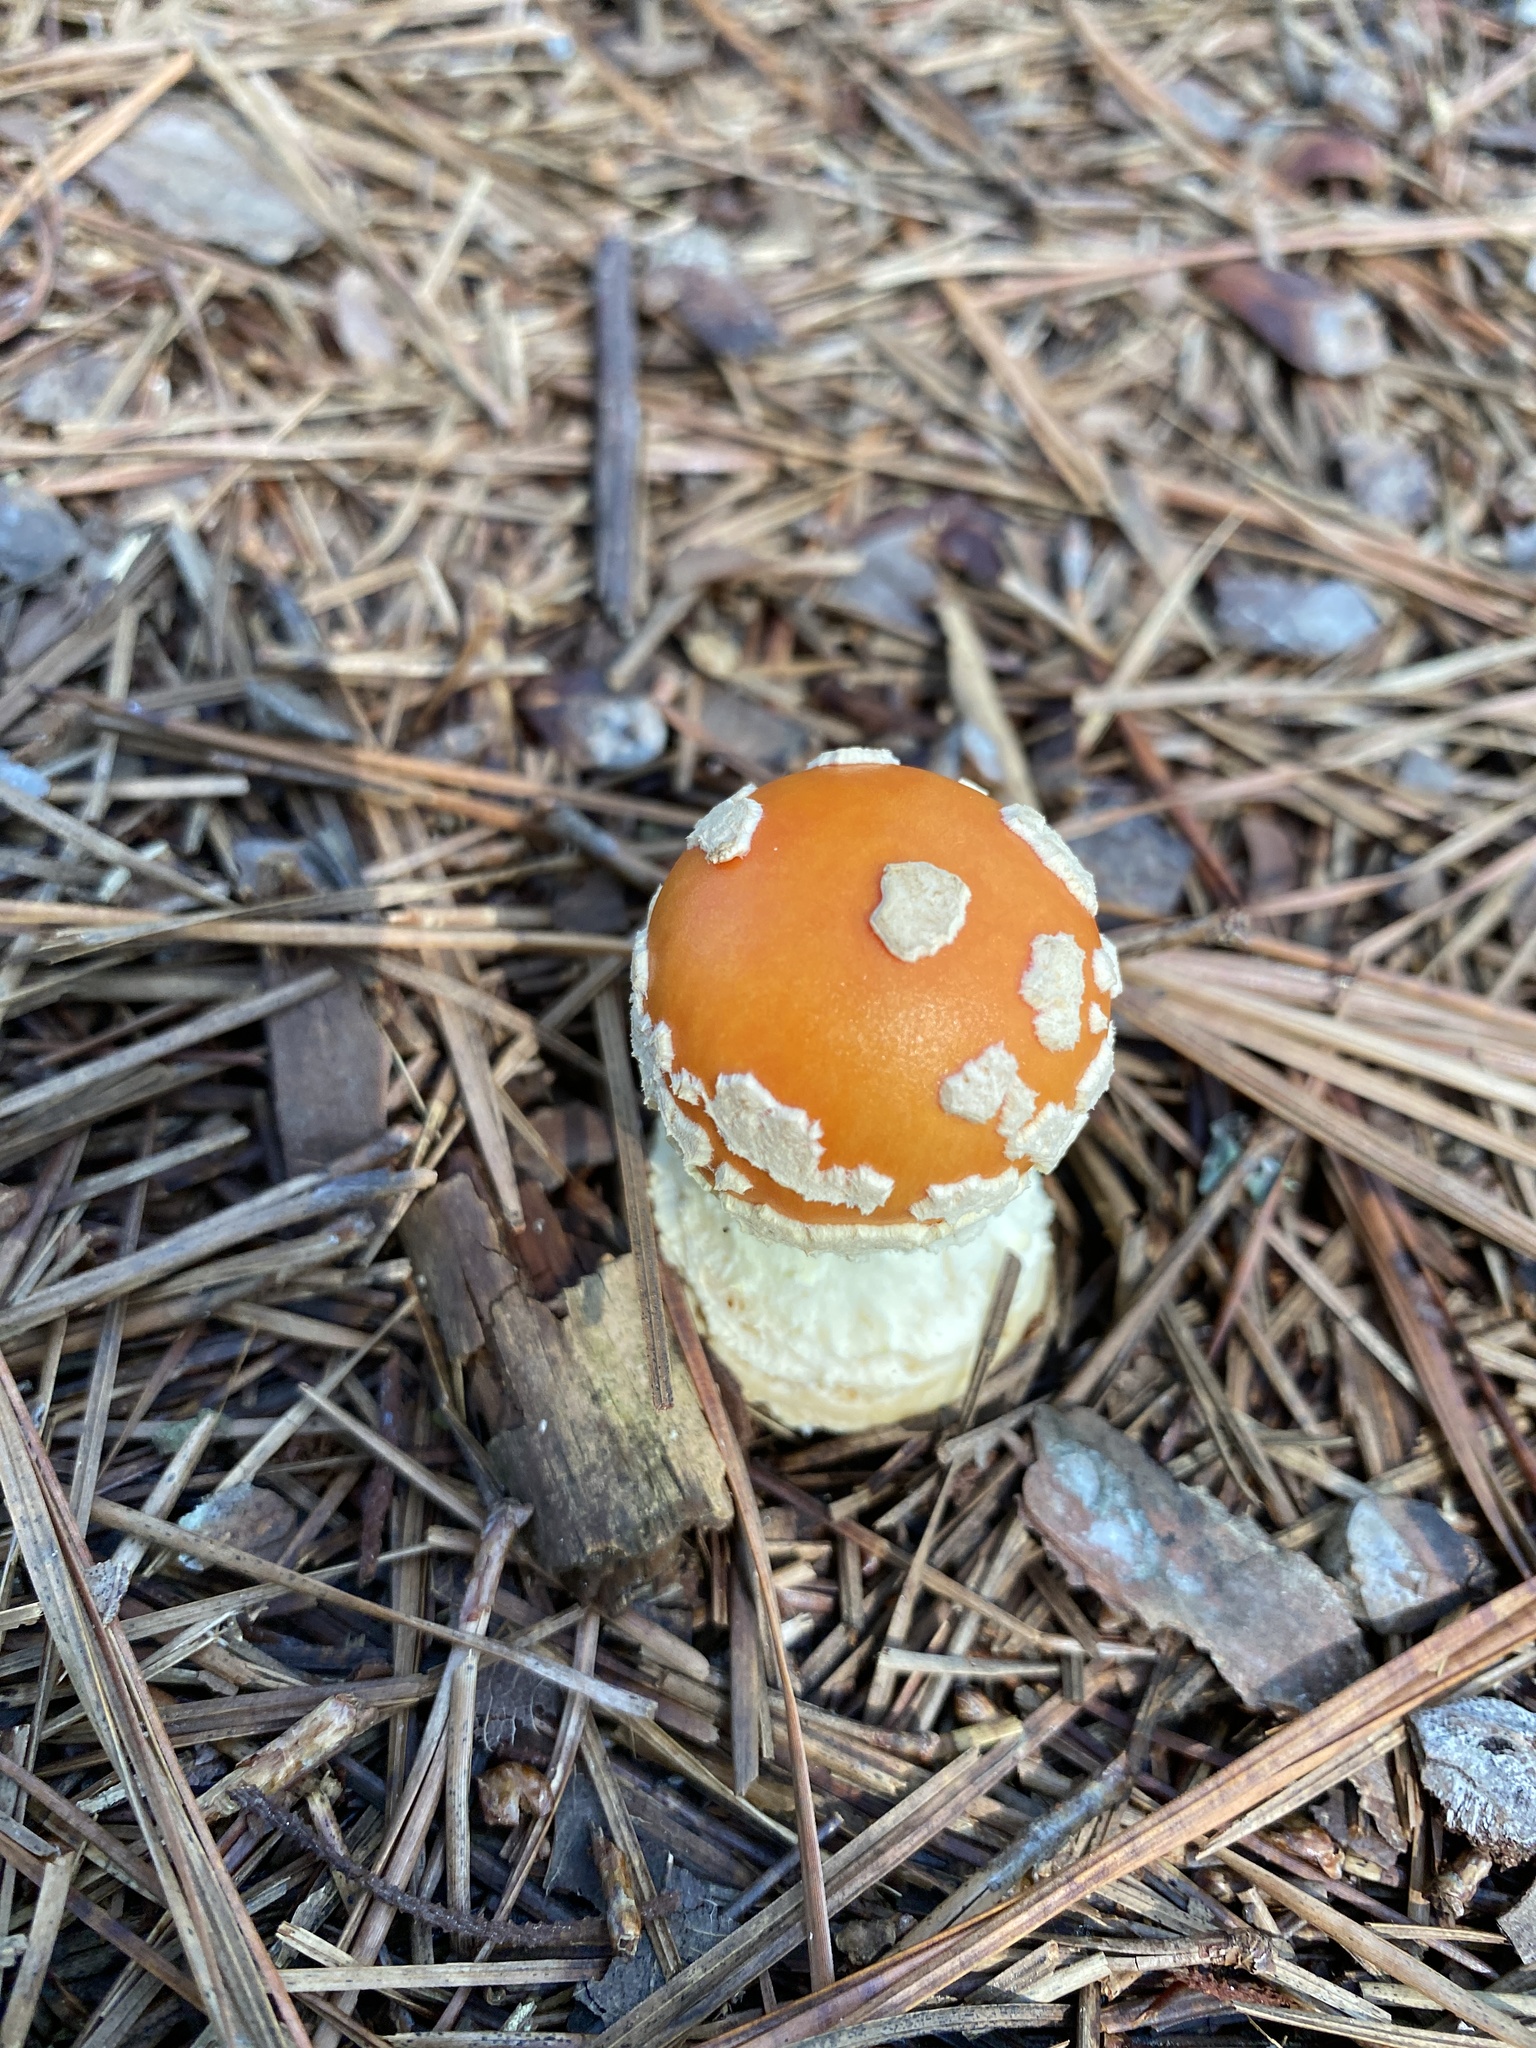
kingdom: Fungi
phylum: Basidiomycota
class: Agaricomycetes
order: Agaricales
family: Amanitaceae
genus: Amanita
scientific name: Amanita persicina
